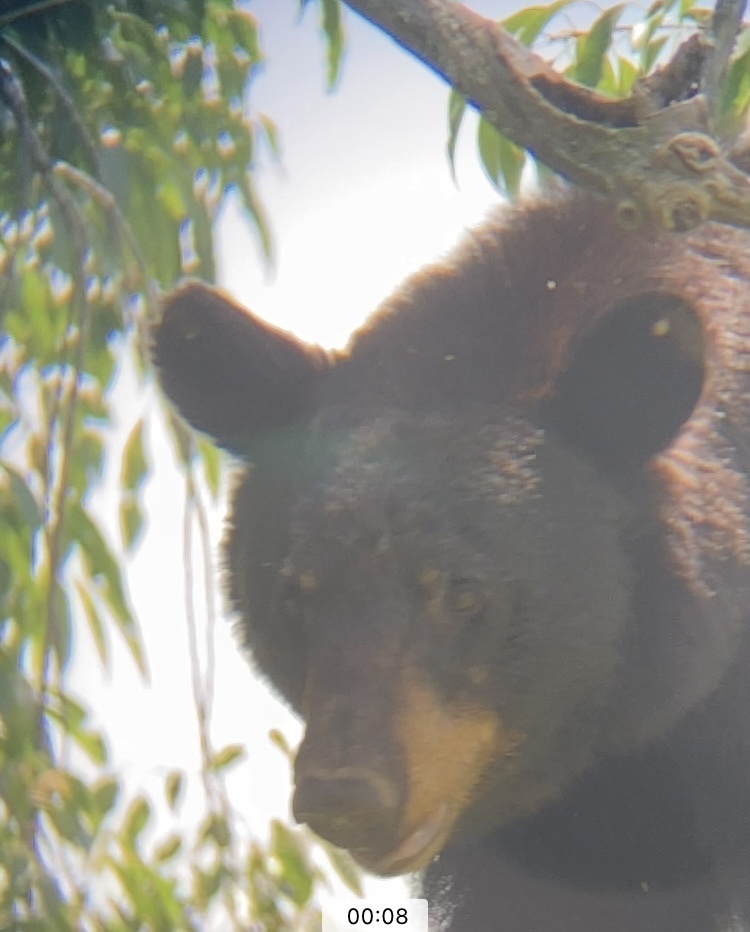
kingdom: Animalia
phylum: Chordata
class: Mammalia
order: Carnivora
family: Ursidae
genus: Ursus
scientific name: Ursus americanus
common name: American black bear
